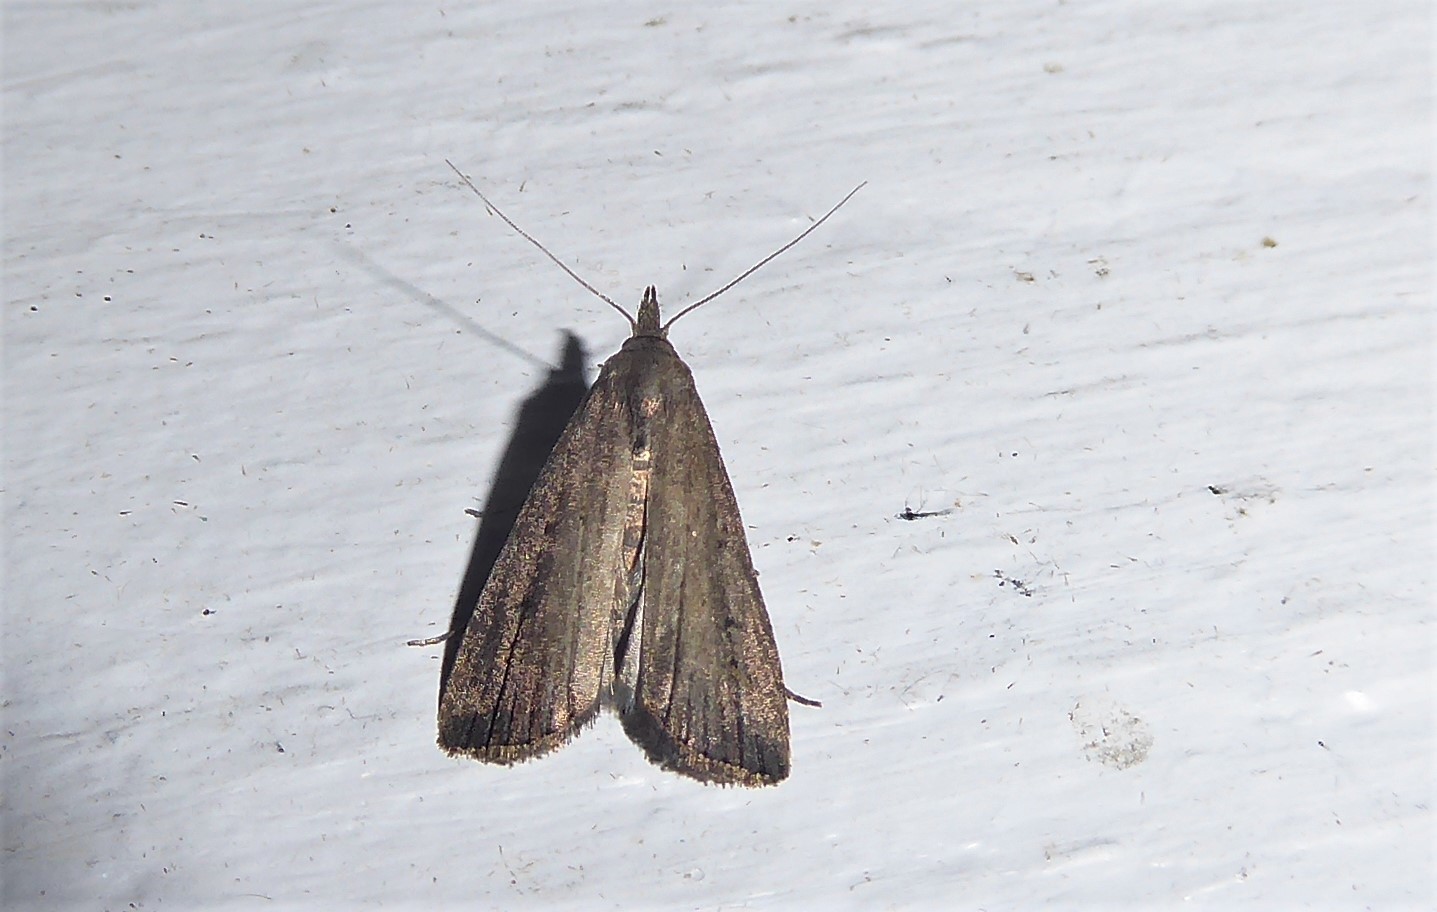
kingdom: Animalia
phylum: Arthropoda
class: Insecta
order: Lepidoptera
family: Erebidae
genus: Schrankia
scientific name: Schrankia costaestrigalis
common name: Pinion-streaked snout
